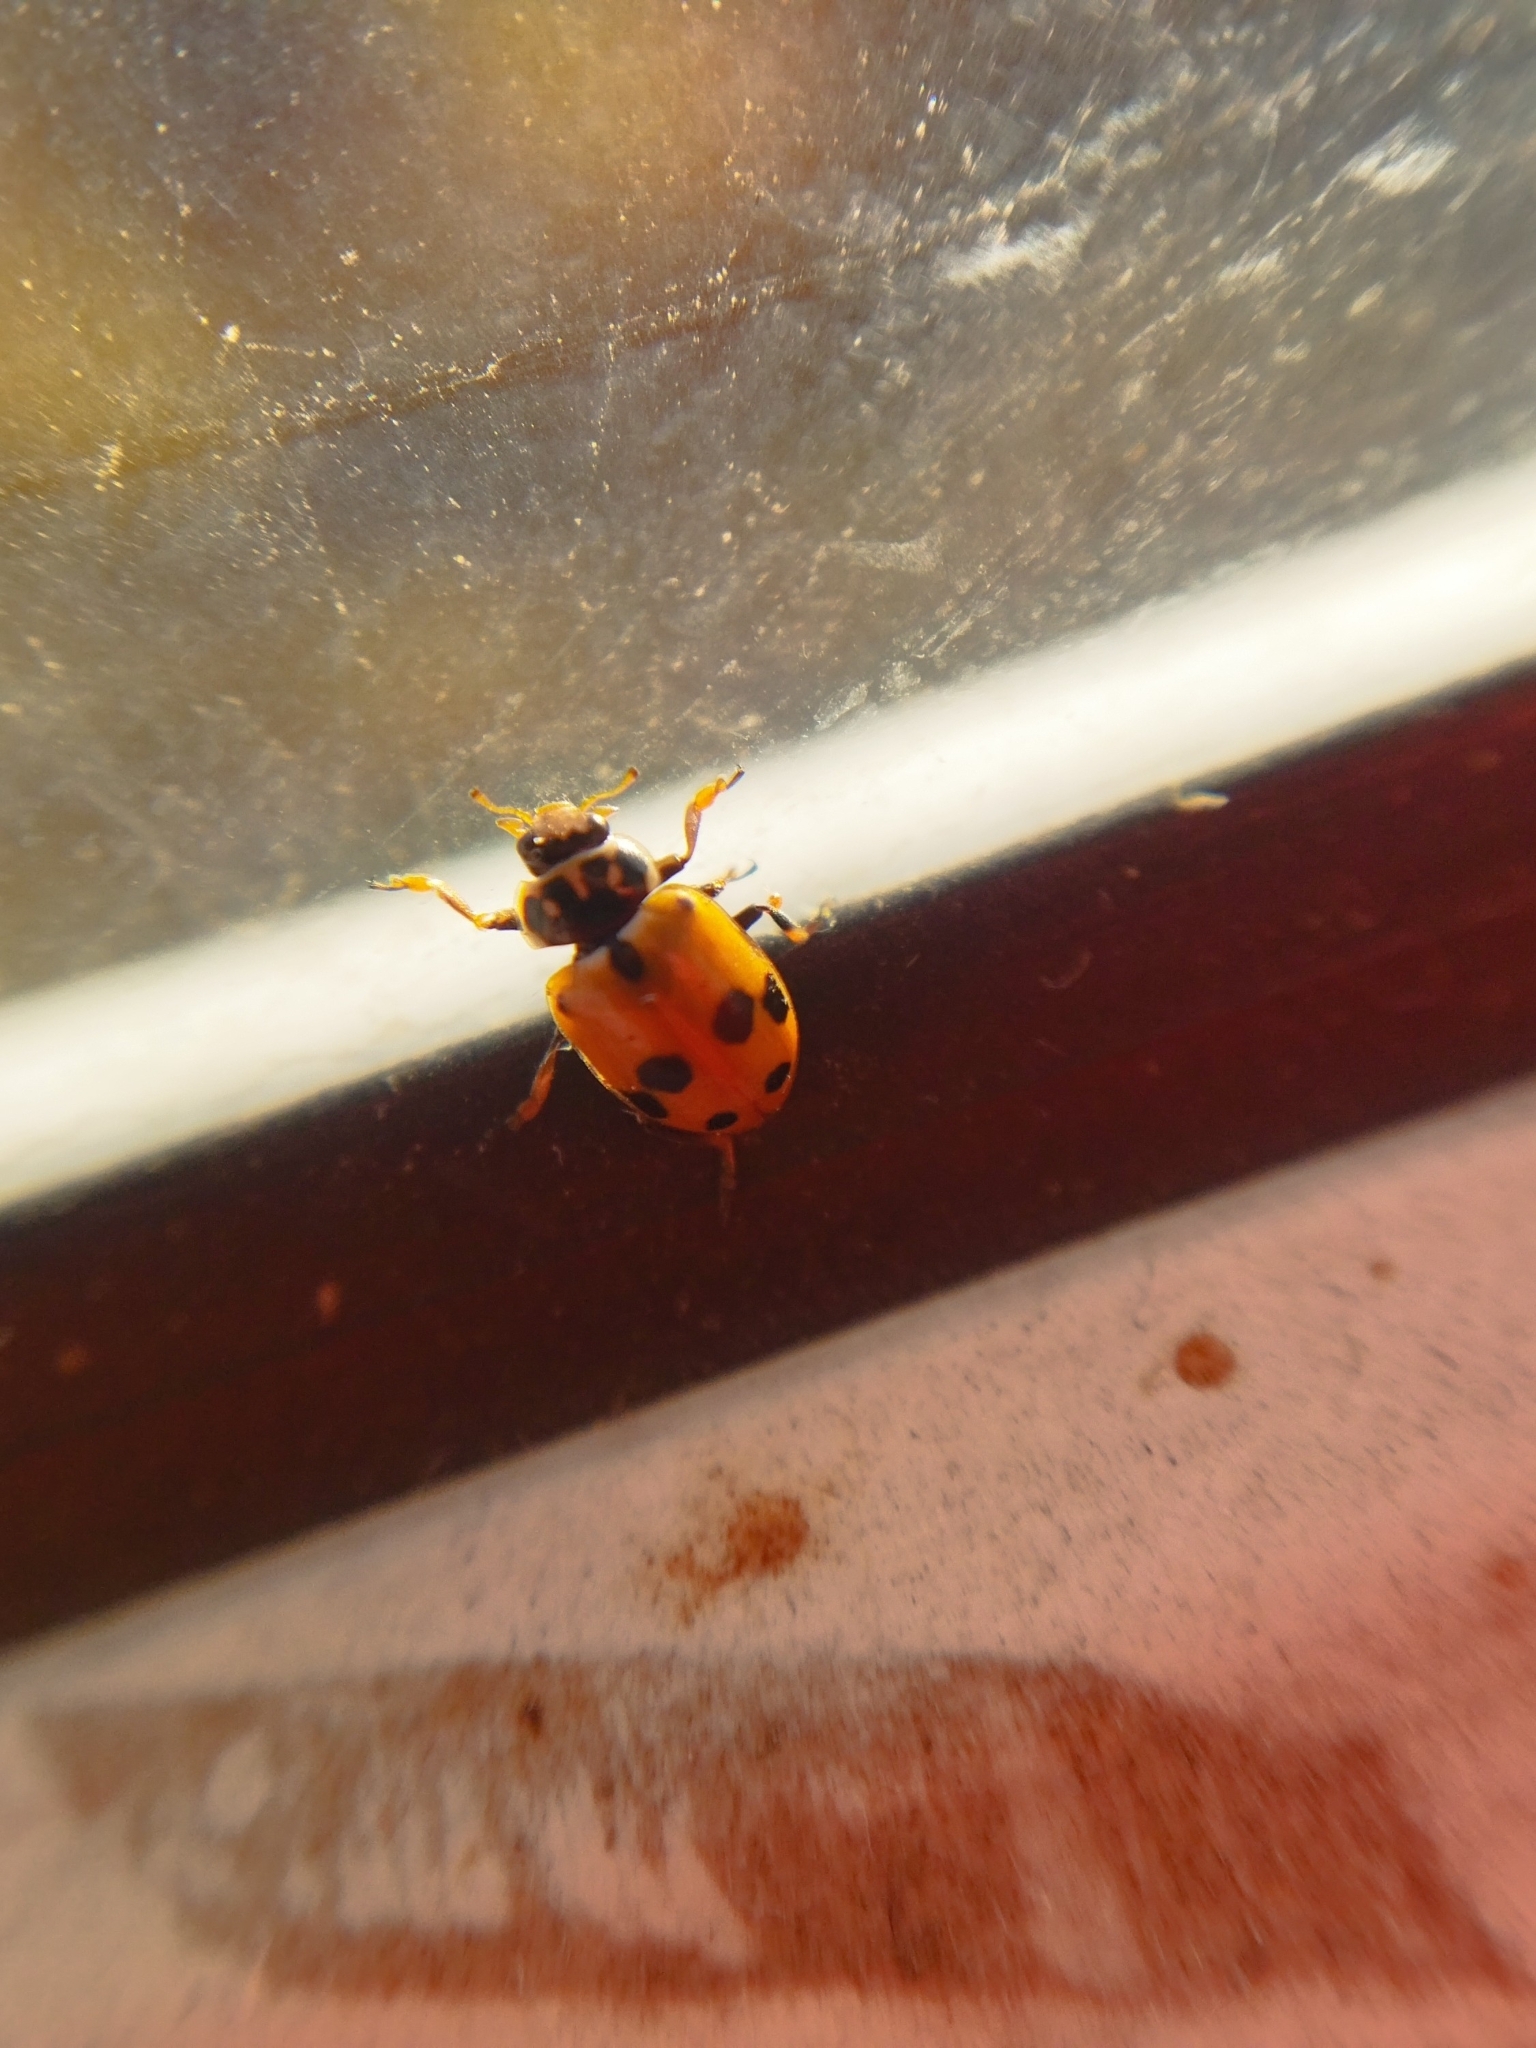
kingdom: Animalia
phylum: Arthropoda
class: Insecta
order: Coleoptera
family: Coccinellidae
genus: Hippodamia
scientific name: Hippodamia variegata
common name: Ladybird beetle
